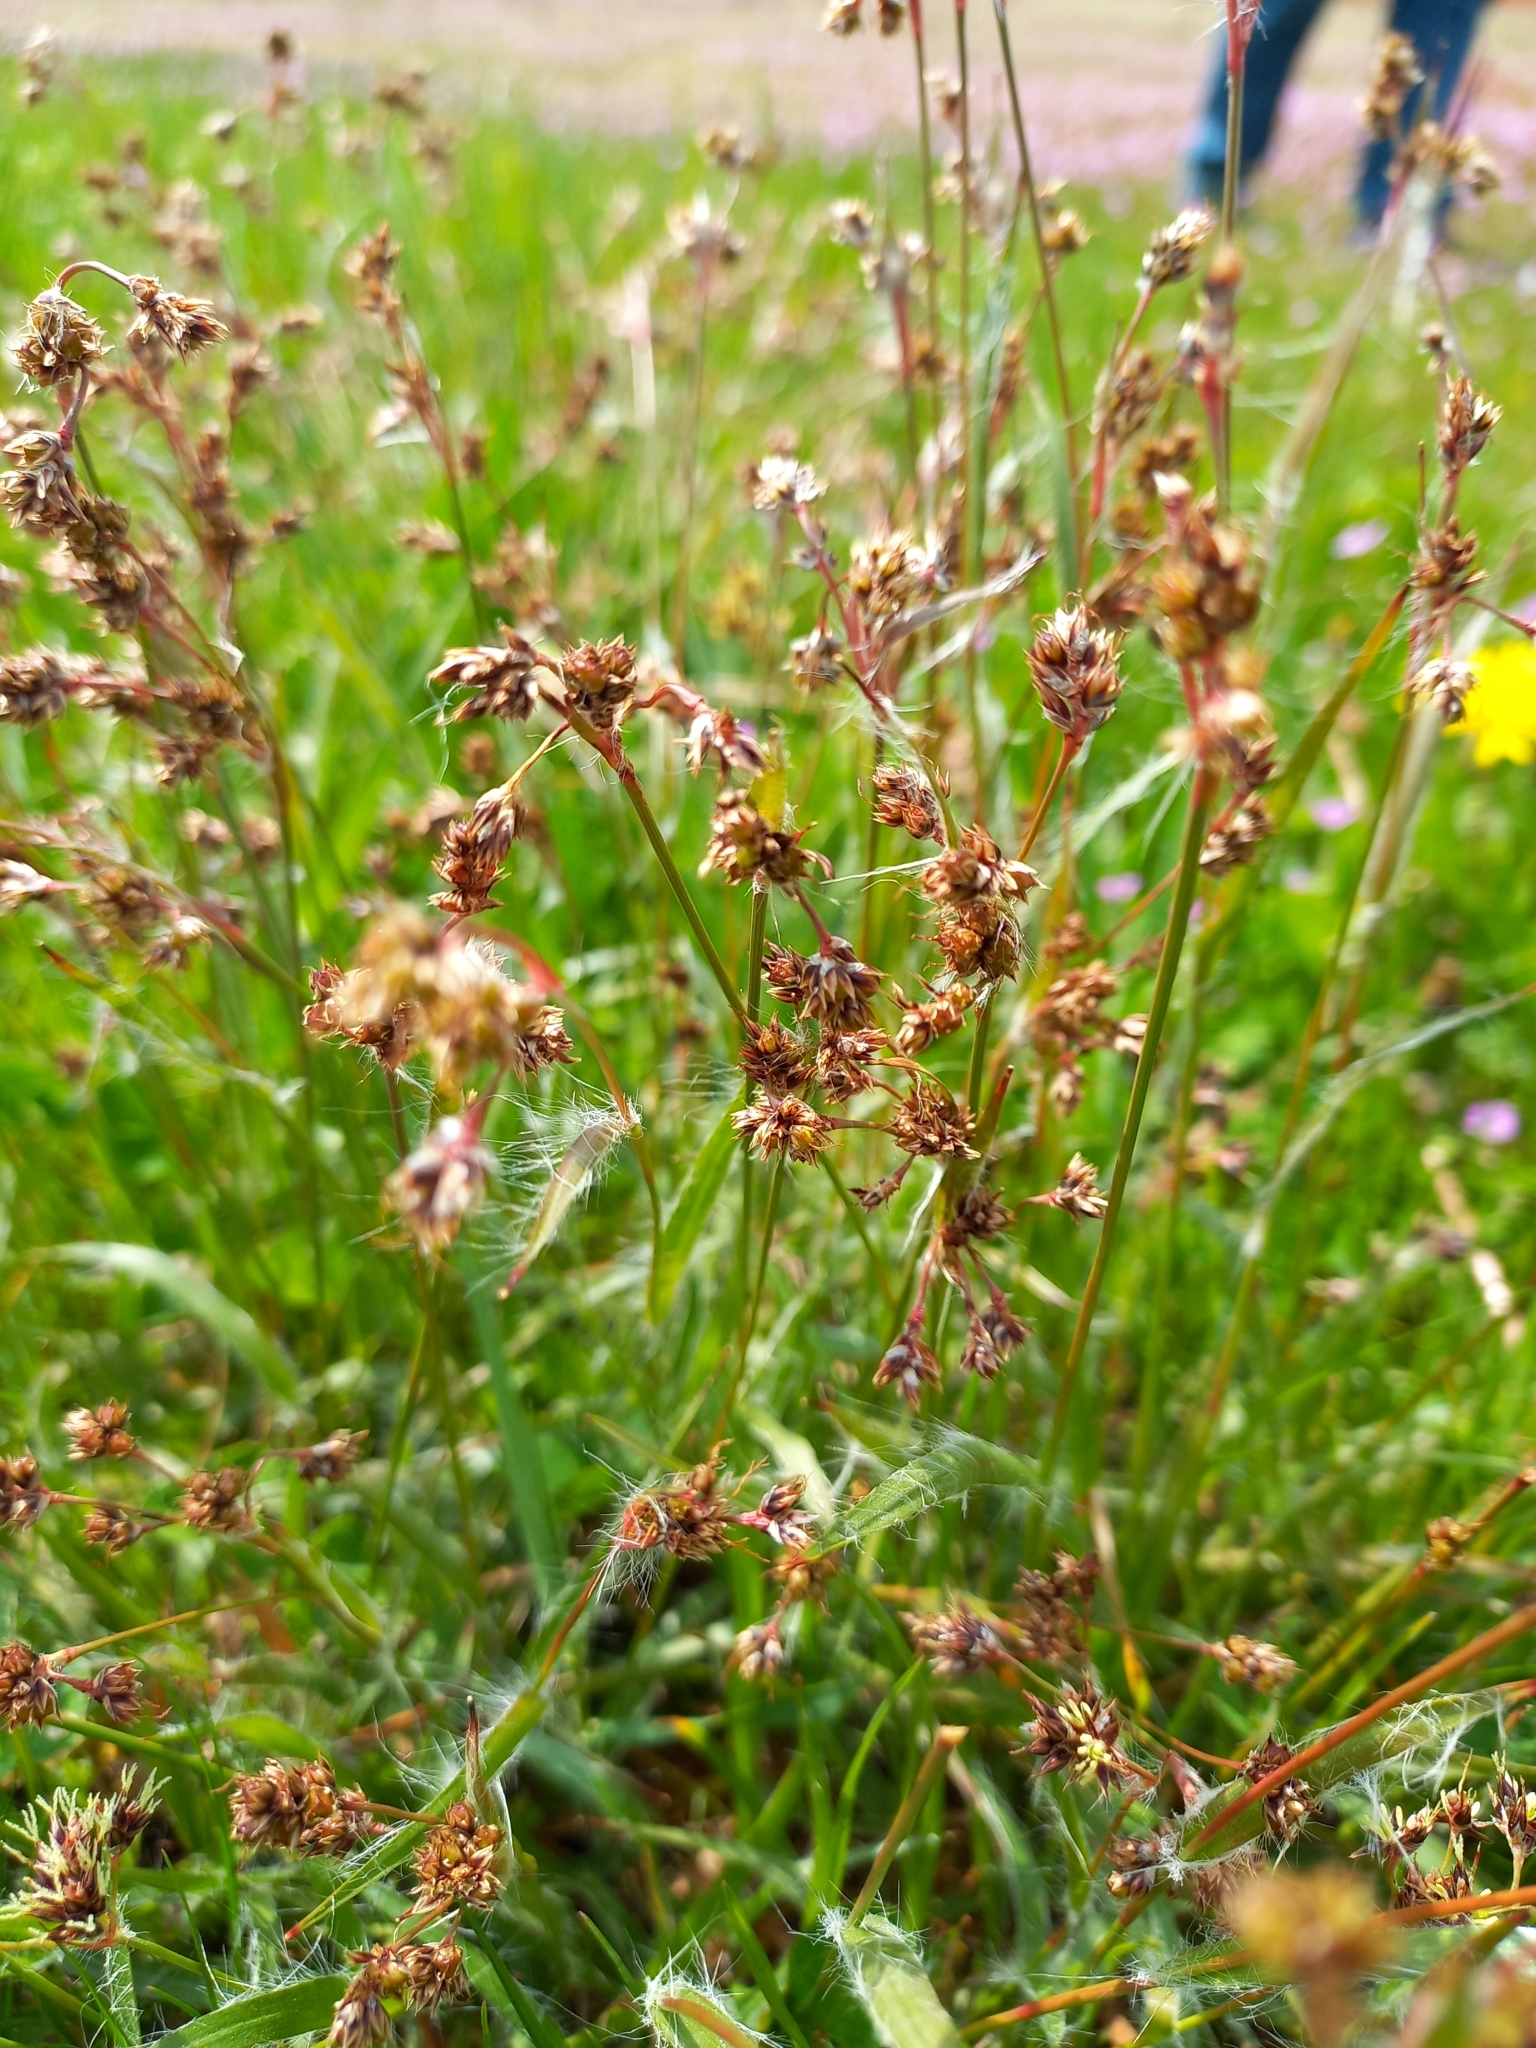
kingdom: Plantae
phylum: Tracheophyta
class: Liliopsida
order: Poales
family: Juncaceae
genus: Luzula
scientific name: Luzula campestris
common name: Field wood-rush
